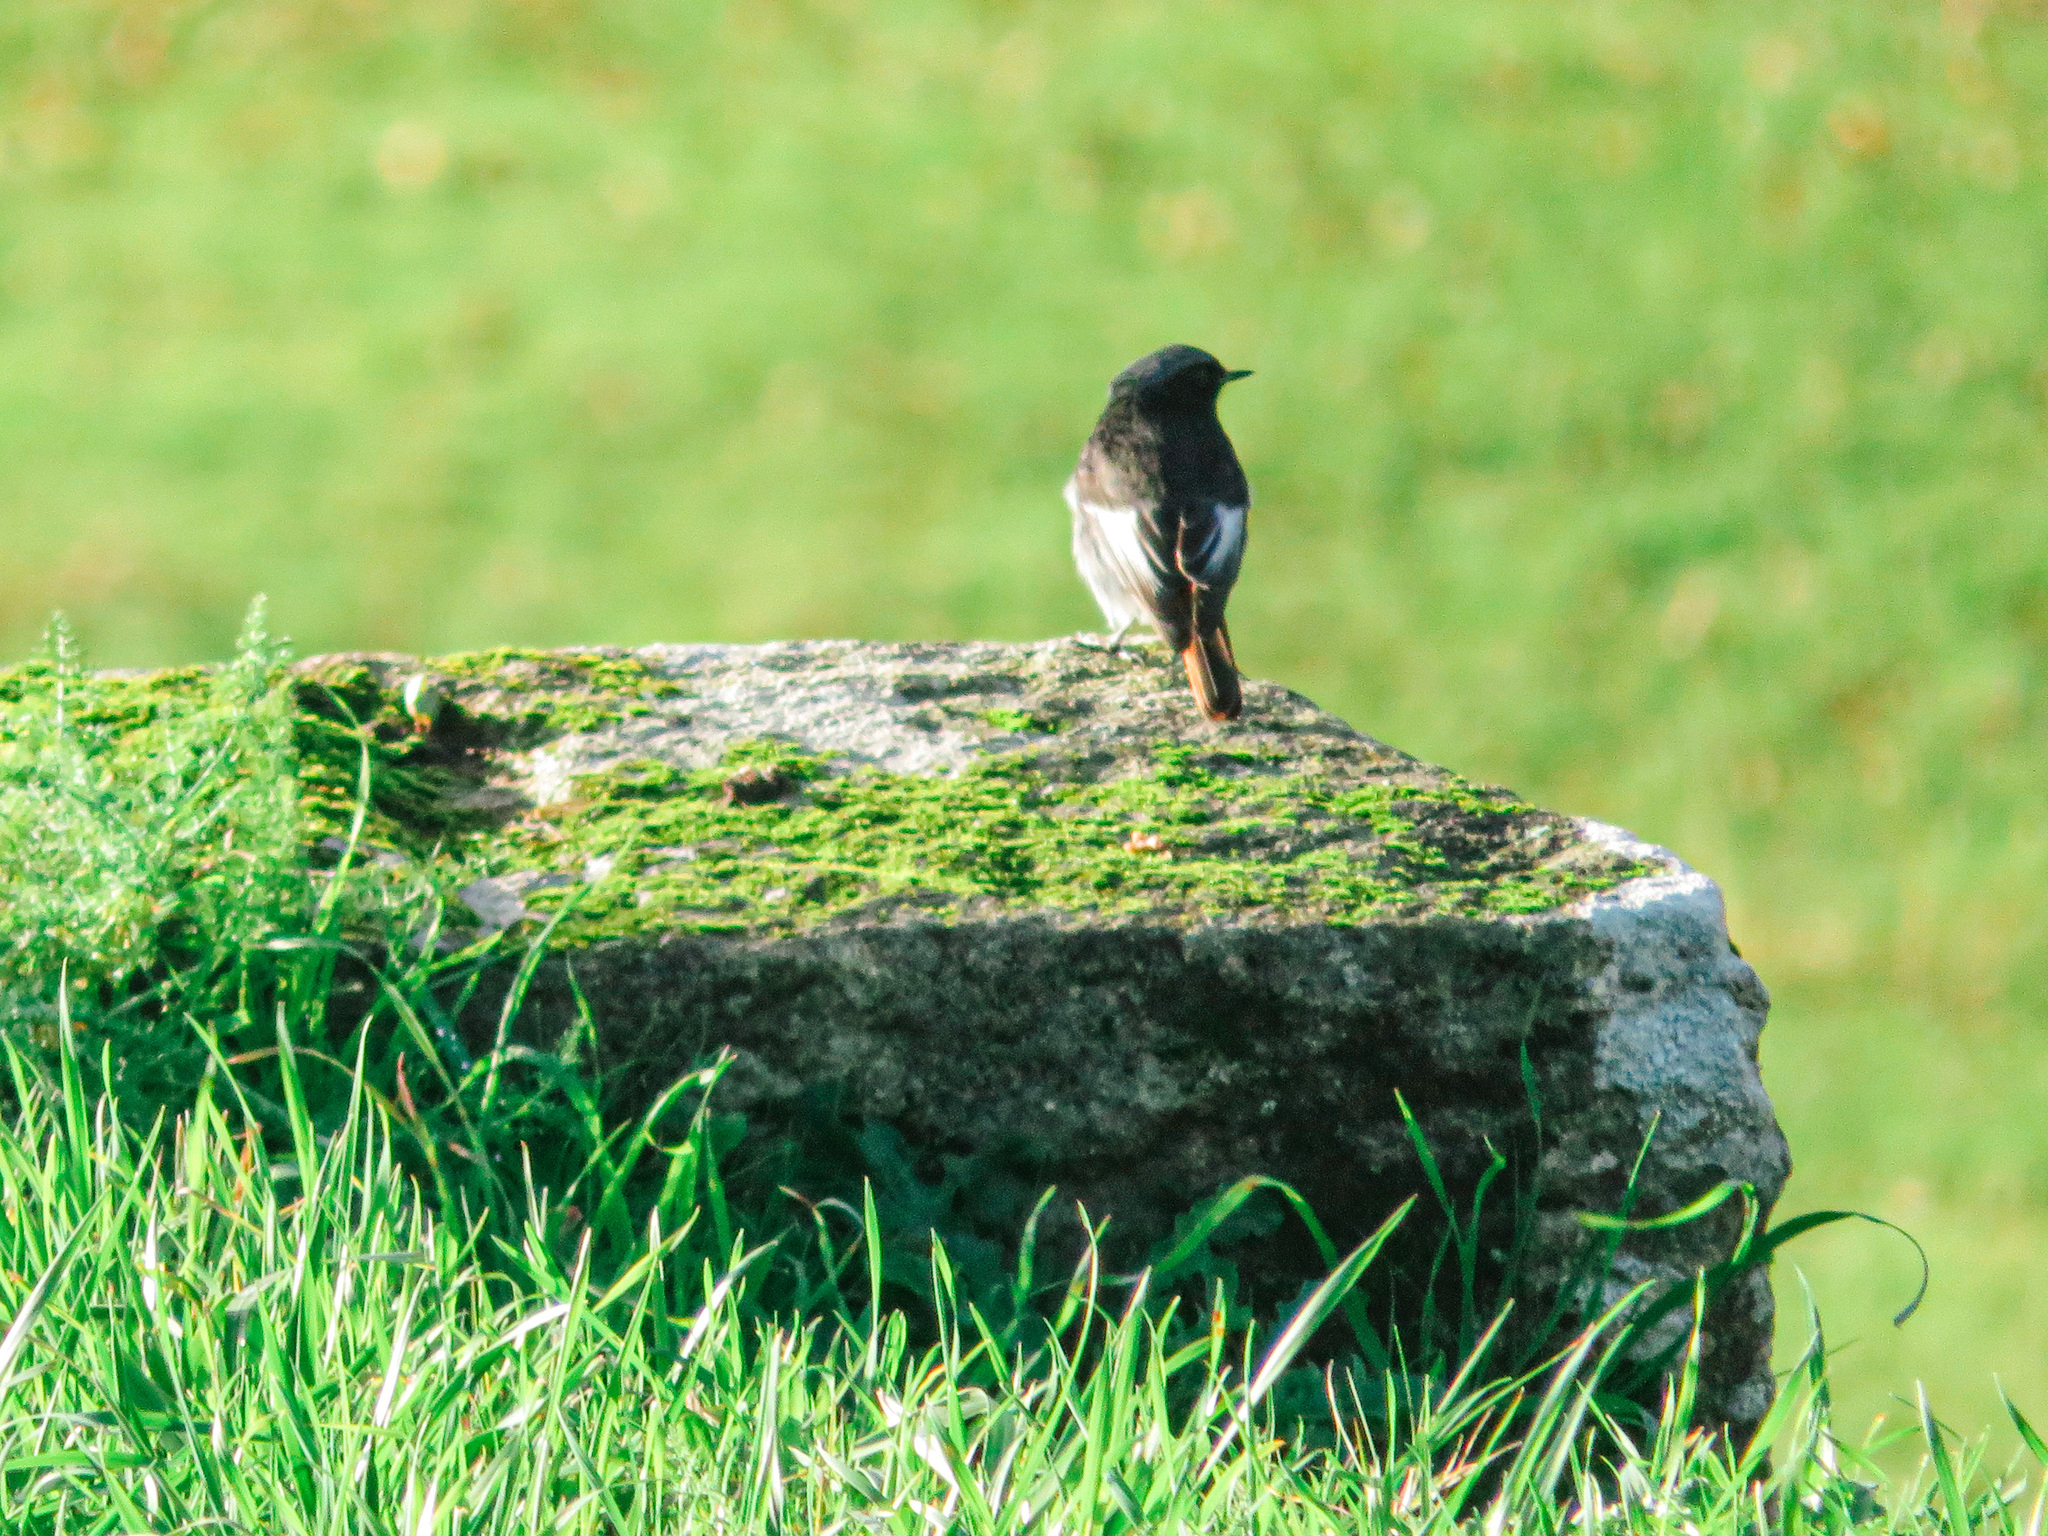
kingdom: Animalia
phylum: Chordata
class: Aves
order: Passeriformes
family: Muscicapidae
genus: Phoenicurus
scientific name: Phoenicurus ochruros
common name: Black redstart
